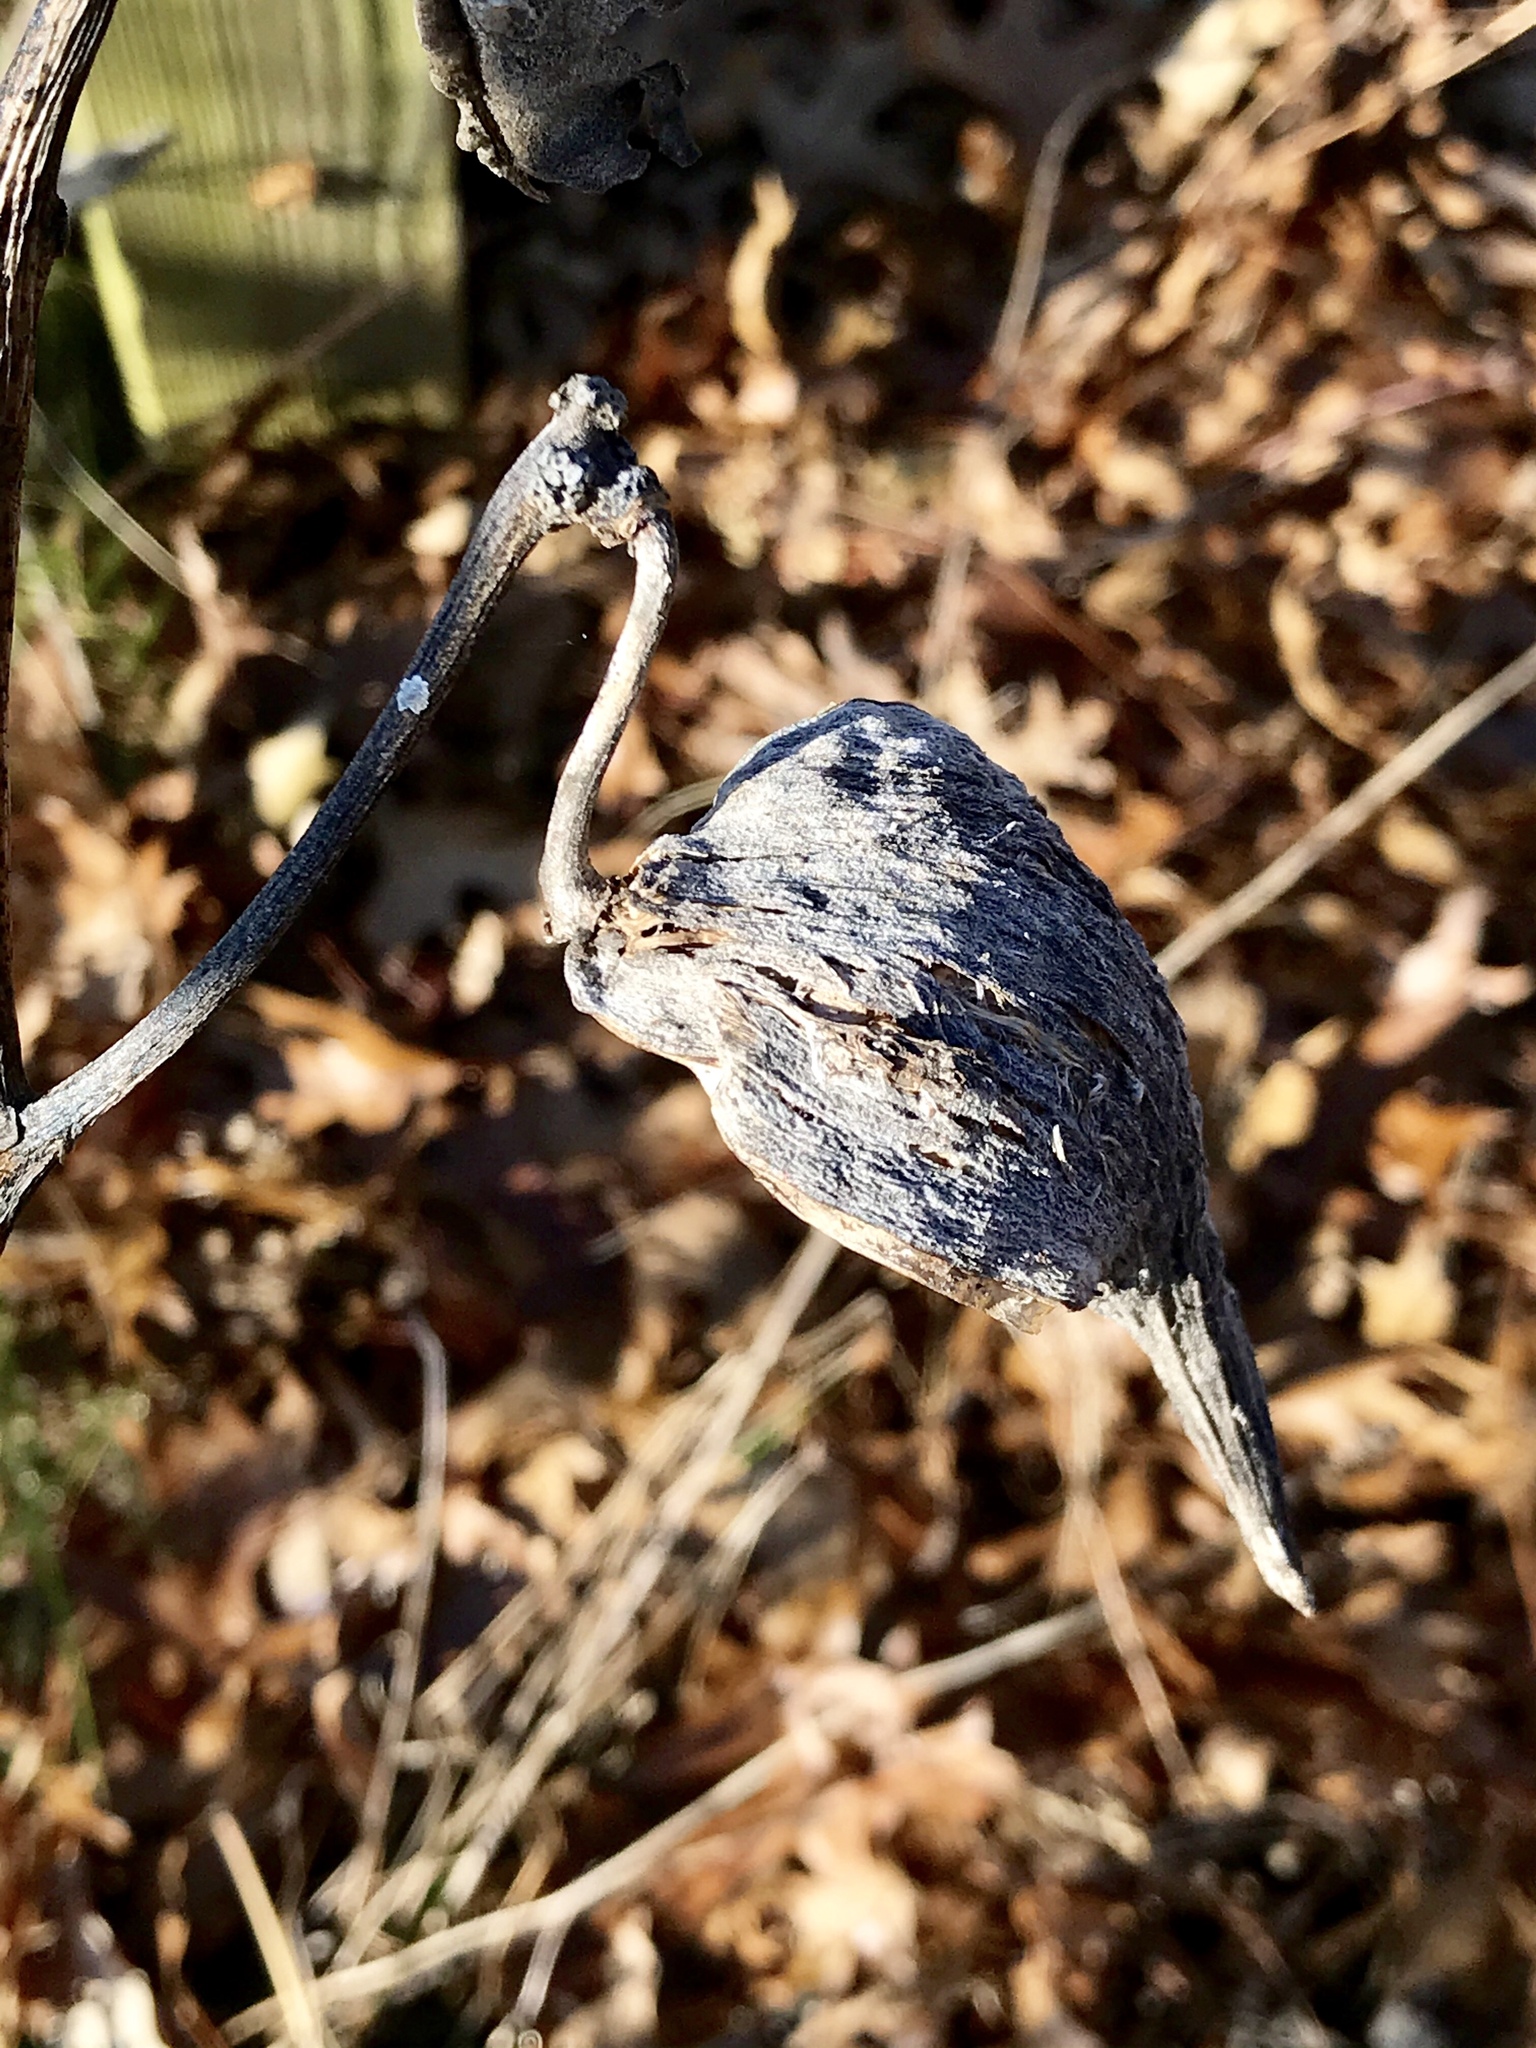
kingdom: Plantae
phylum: Tracheophyta
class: Magnoliopsida
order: Gentianales
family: Apocynaceae
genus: Asclepias
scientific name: Asclepias syriaca
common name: Common milkweed
